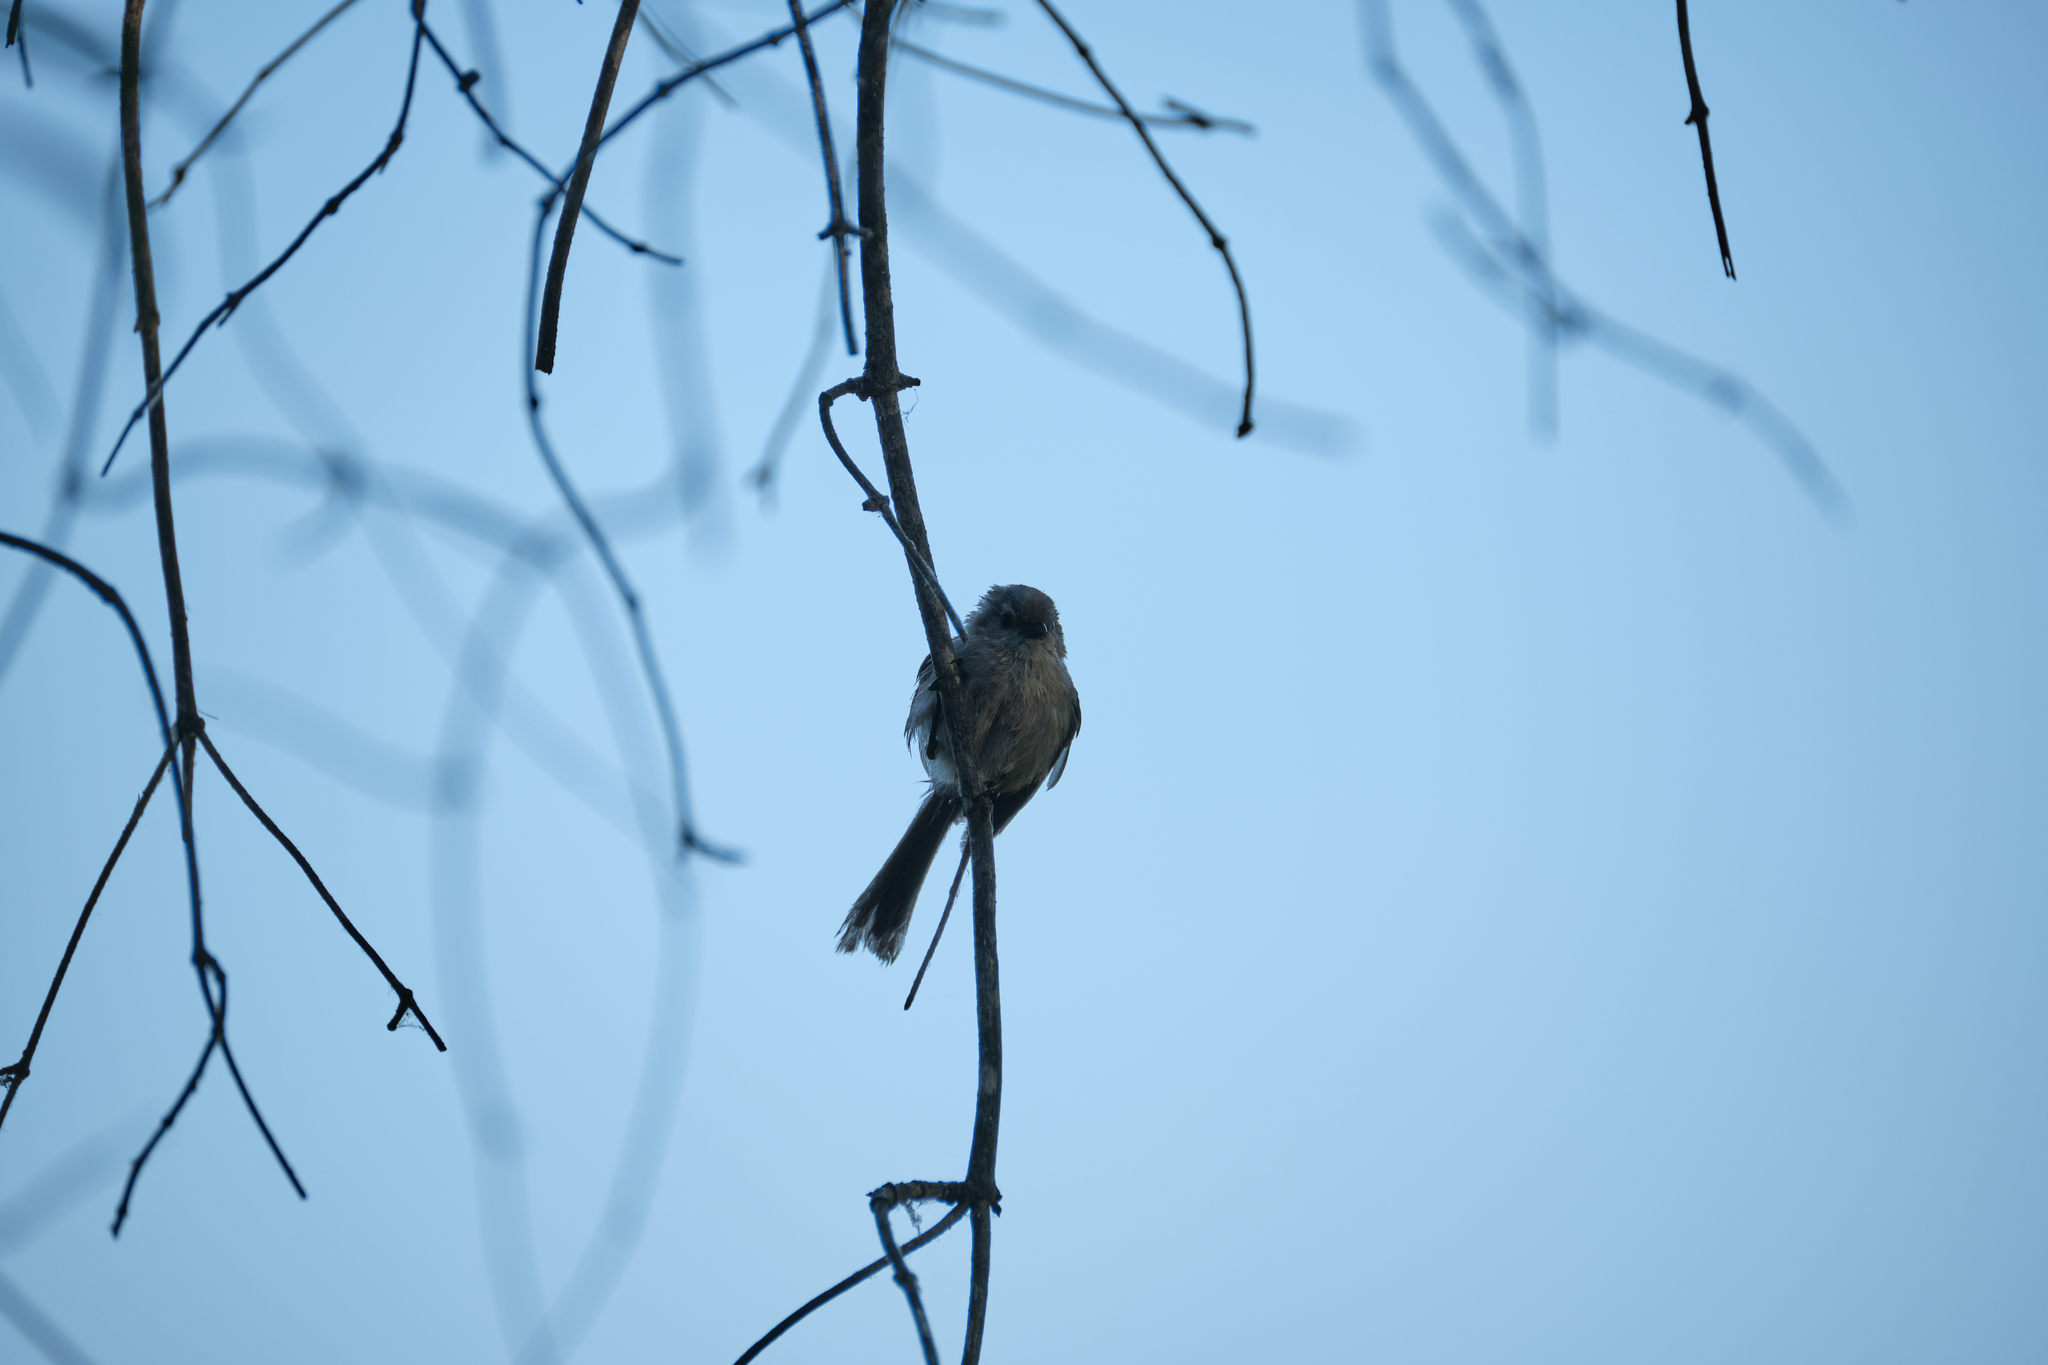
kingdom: Animalia
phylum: Chordata
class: Aves
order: Passeriformes
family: Aegithalidae
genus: Psaltriparus
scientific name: Psaltriparus minimus
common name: American bushtit
